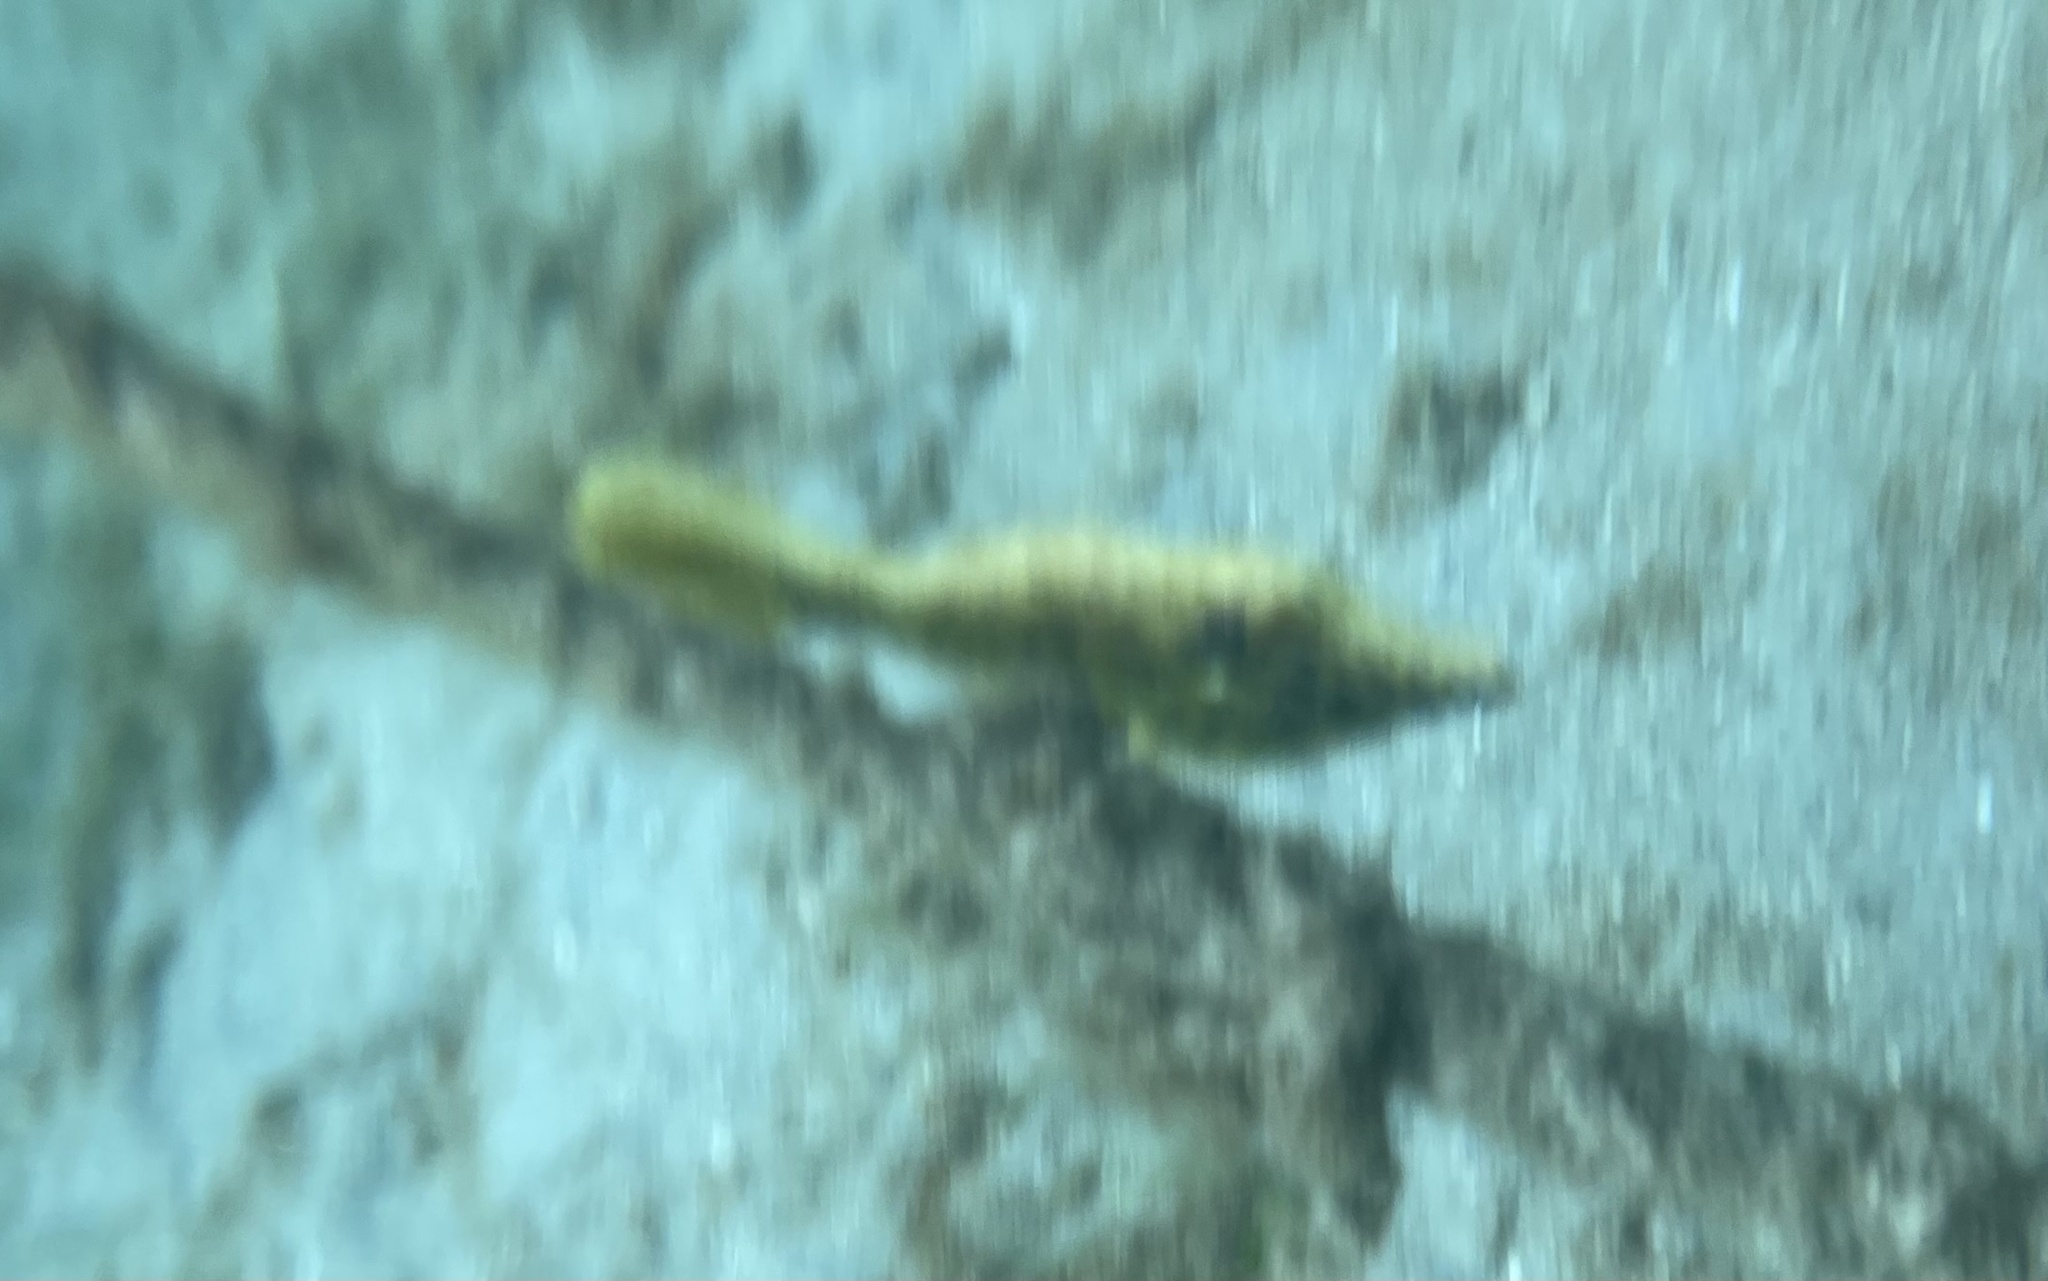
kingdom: Animalia
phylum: Chordata
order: Tetraodontiformes
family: Monacanthidae
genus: Aluterus
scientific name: Aluterus scriptus
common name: Scribbled leatherjacket filefish
